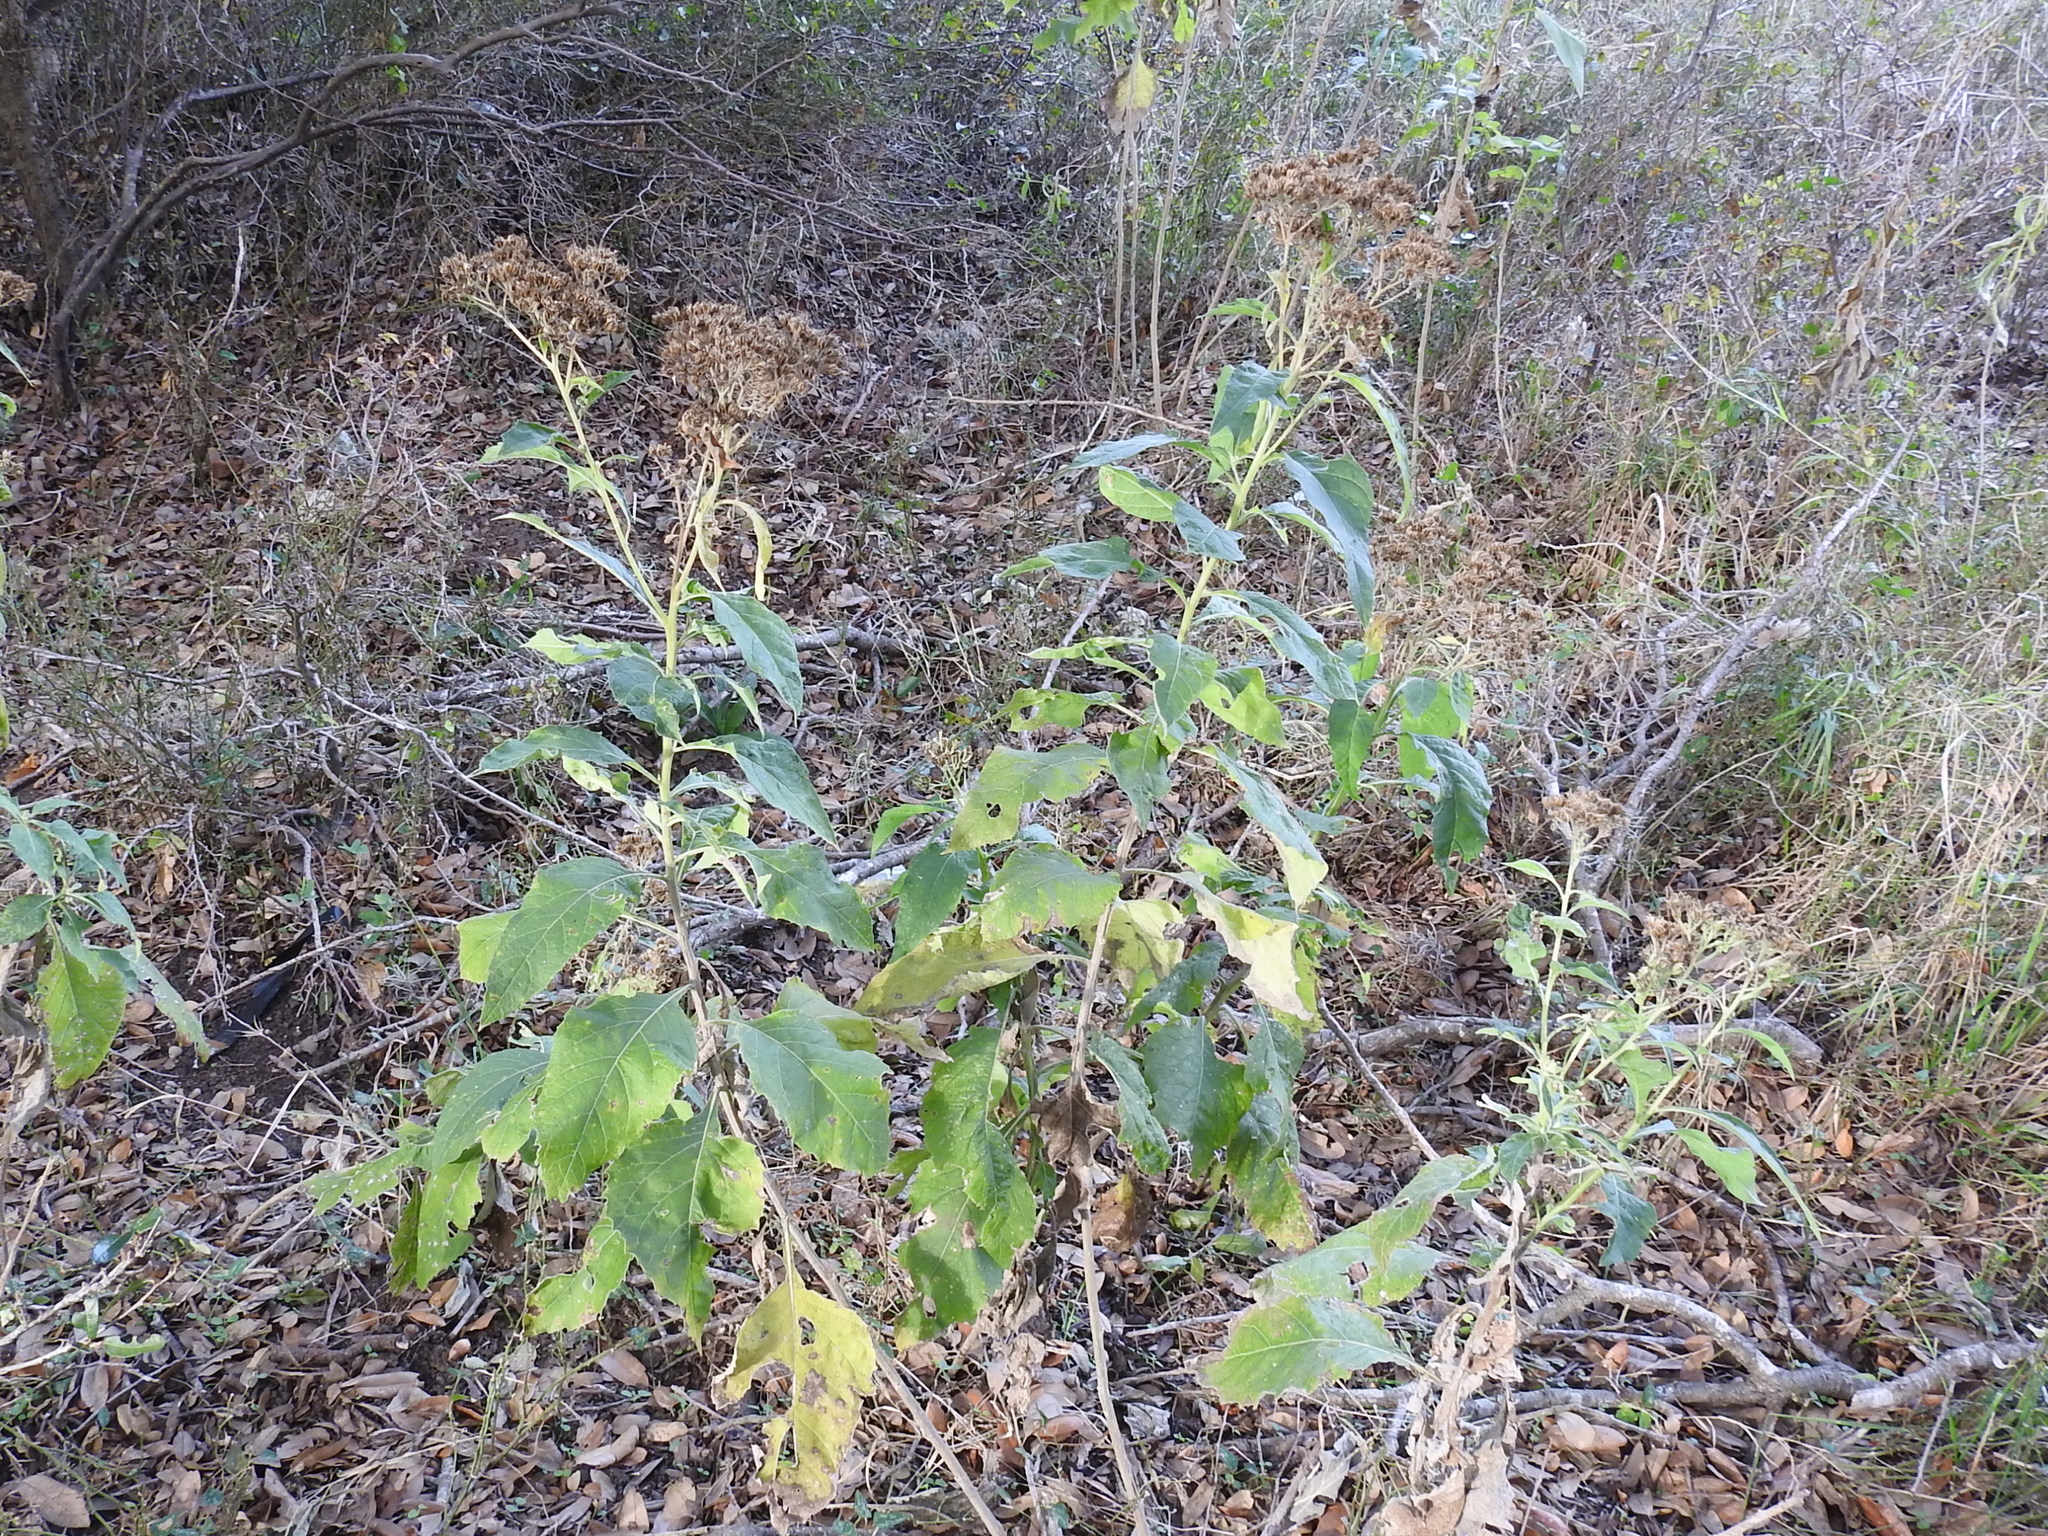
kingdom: Plantae
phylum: Tracheophyta
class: Magnoliopsida
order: Asterales
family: Asteraceae
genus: Verbesina
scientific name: Verbesina virginica
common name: Frostweed
